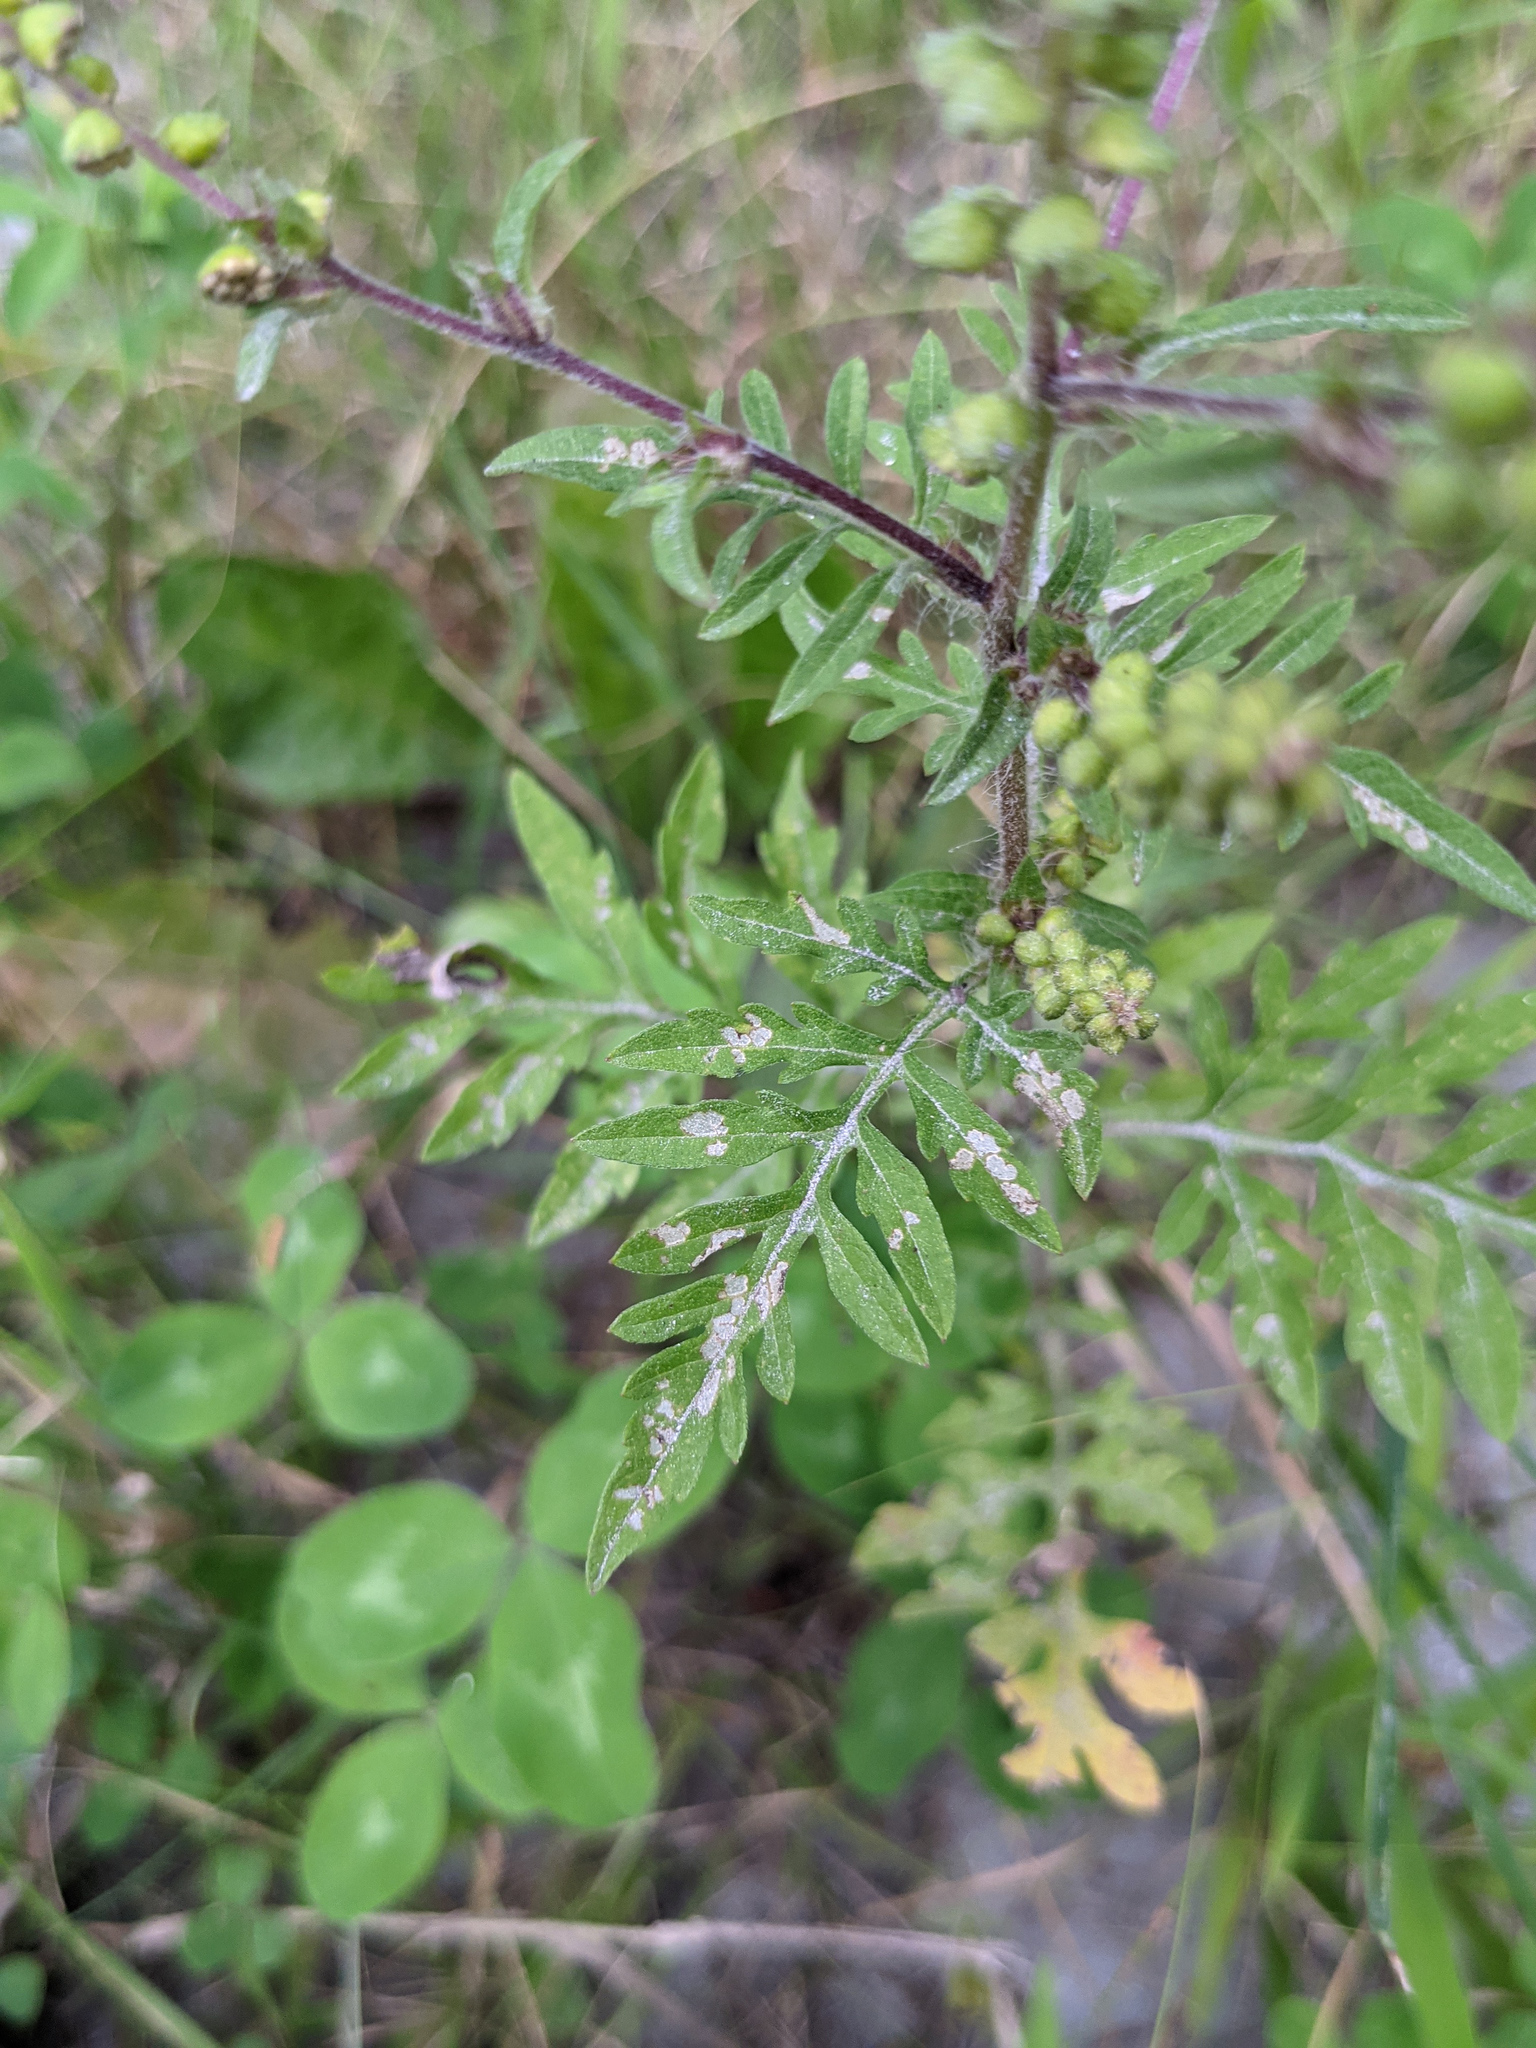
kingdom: Plantae
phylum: Tracheophyta
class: Magnoliopsida
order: Asterales
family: Asteraceae
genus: Ambrosia
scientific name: Ambrosia artemisiifolia
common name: Annual ragweed
